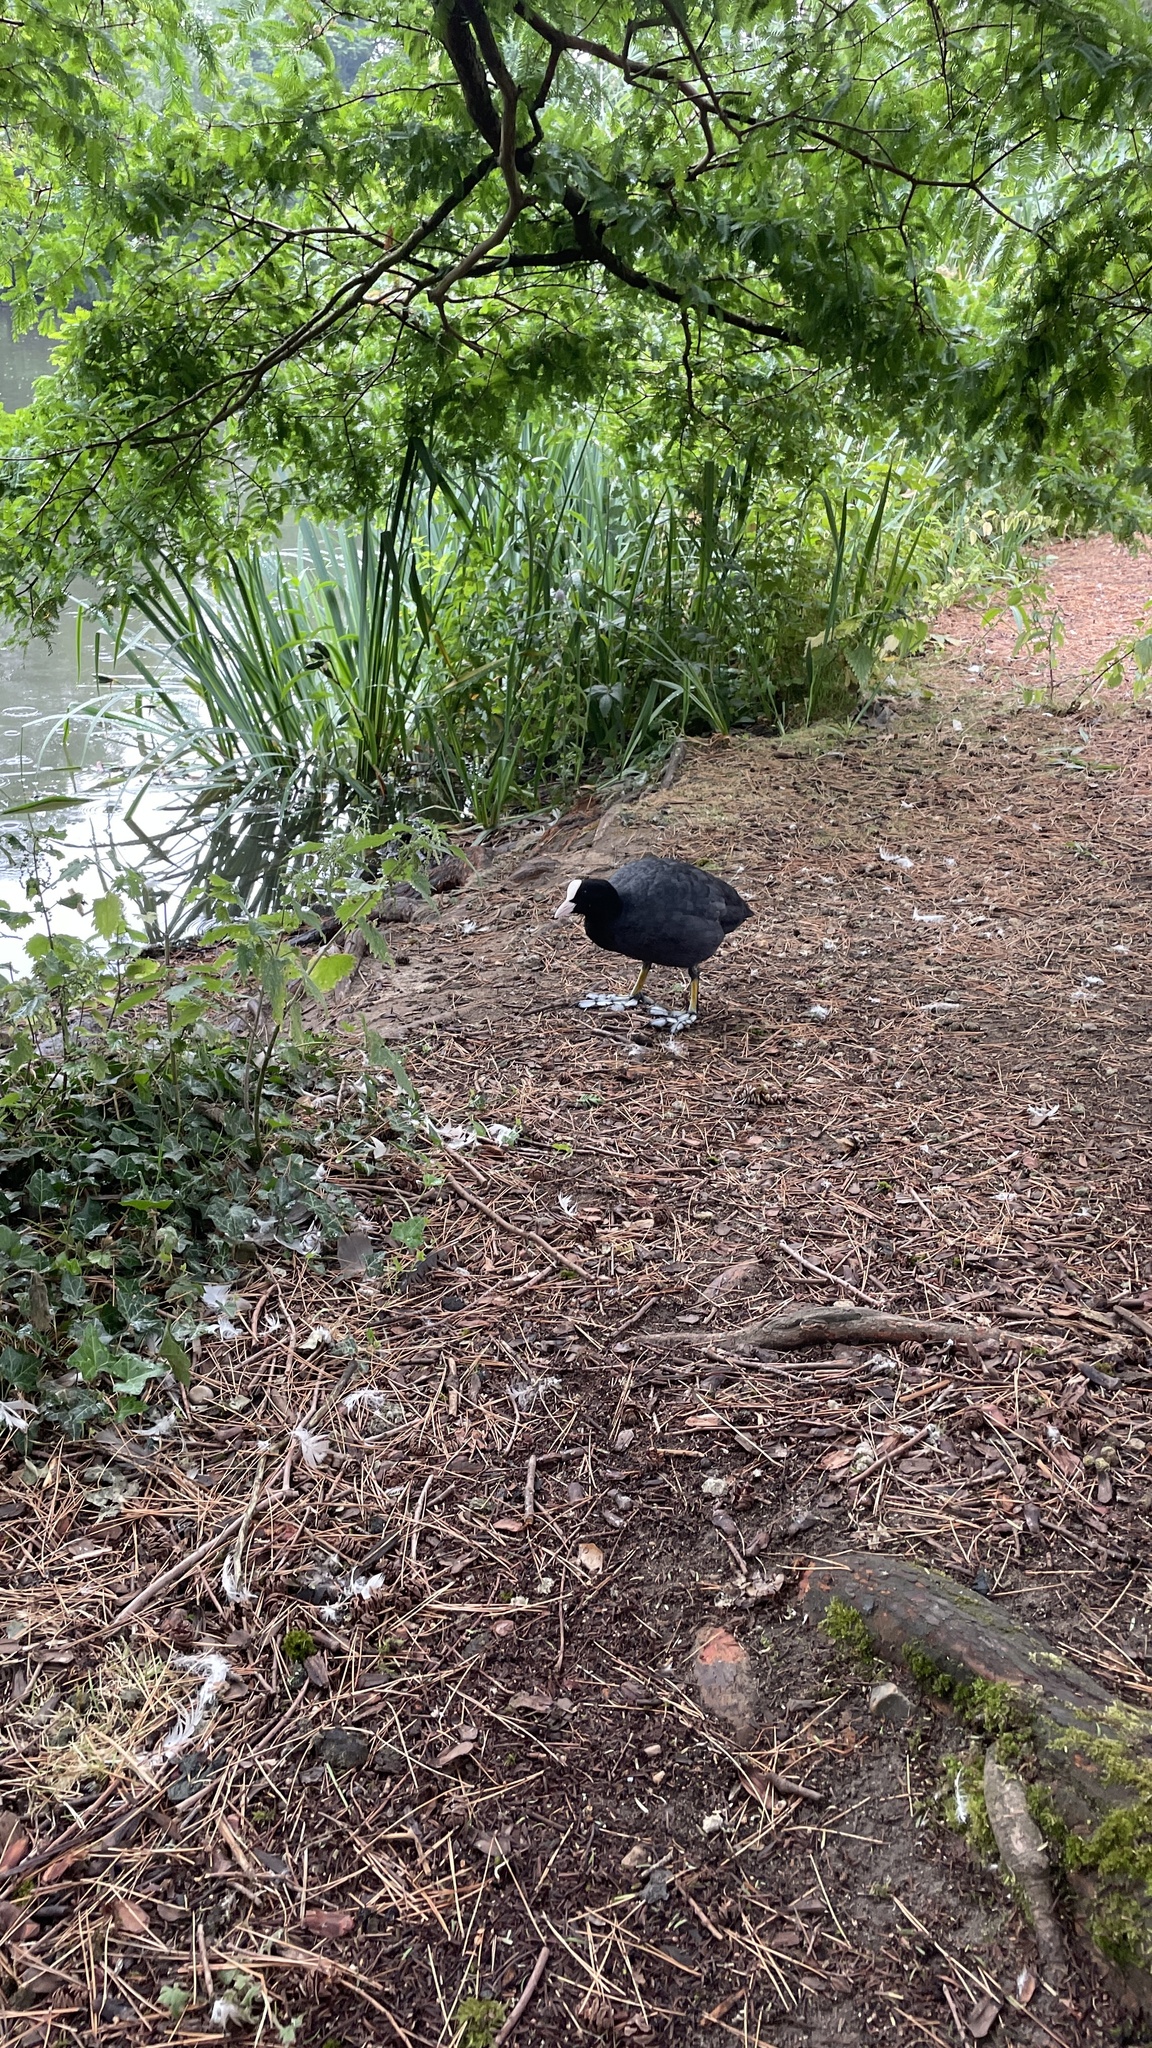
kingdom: Animalia
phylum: Chordata
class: Aves
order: Gruiformes
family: Rallidae
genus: Fulica
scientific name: Fulica atra
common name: Eurasian coot
